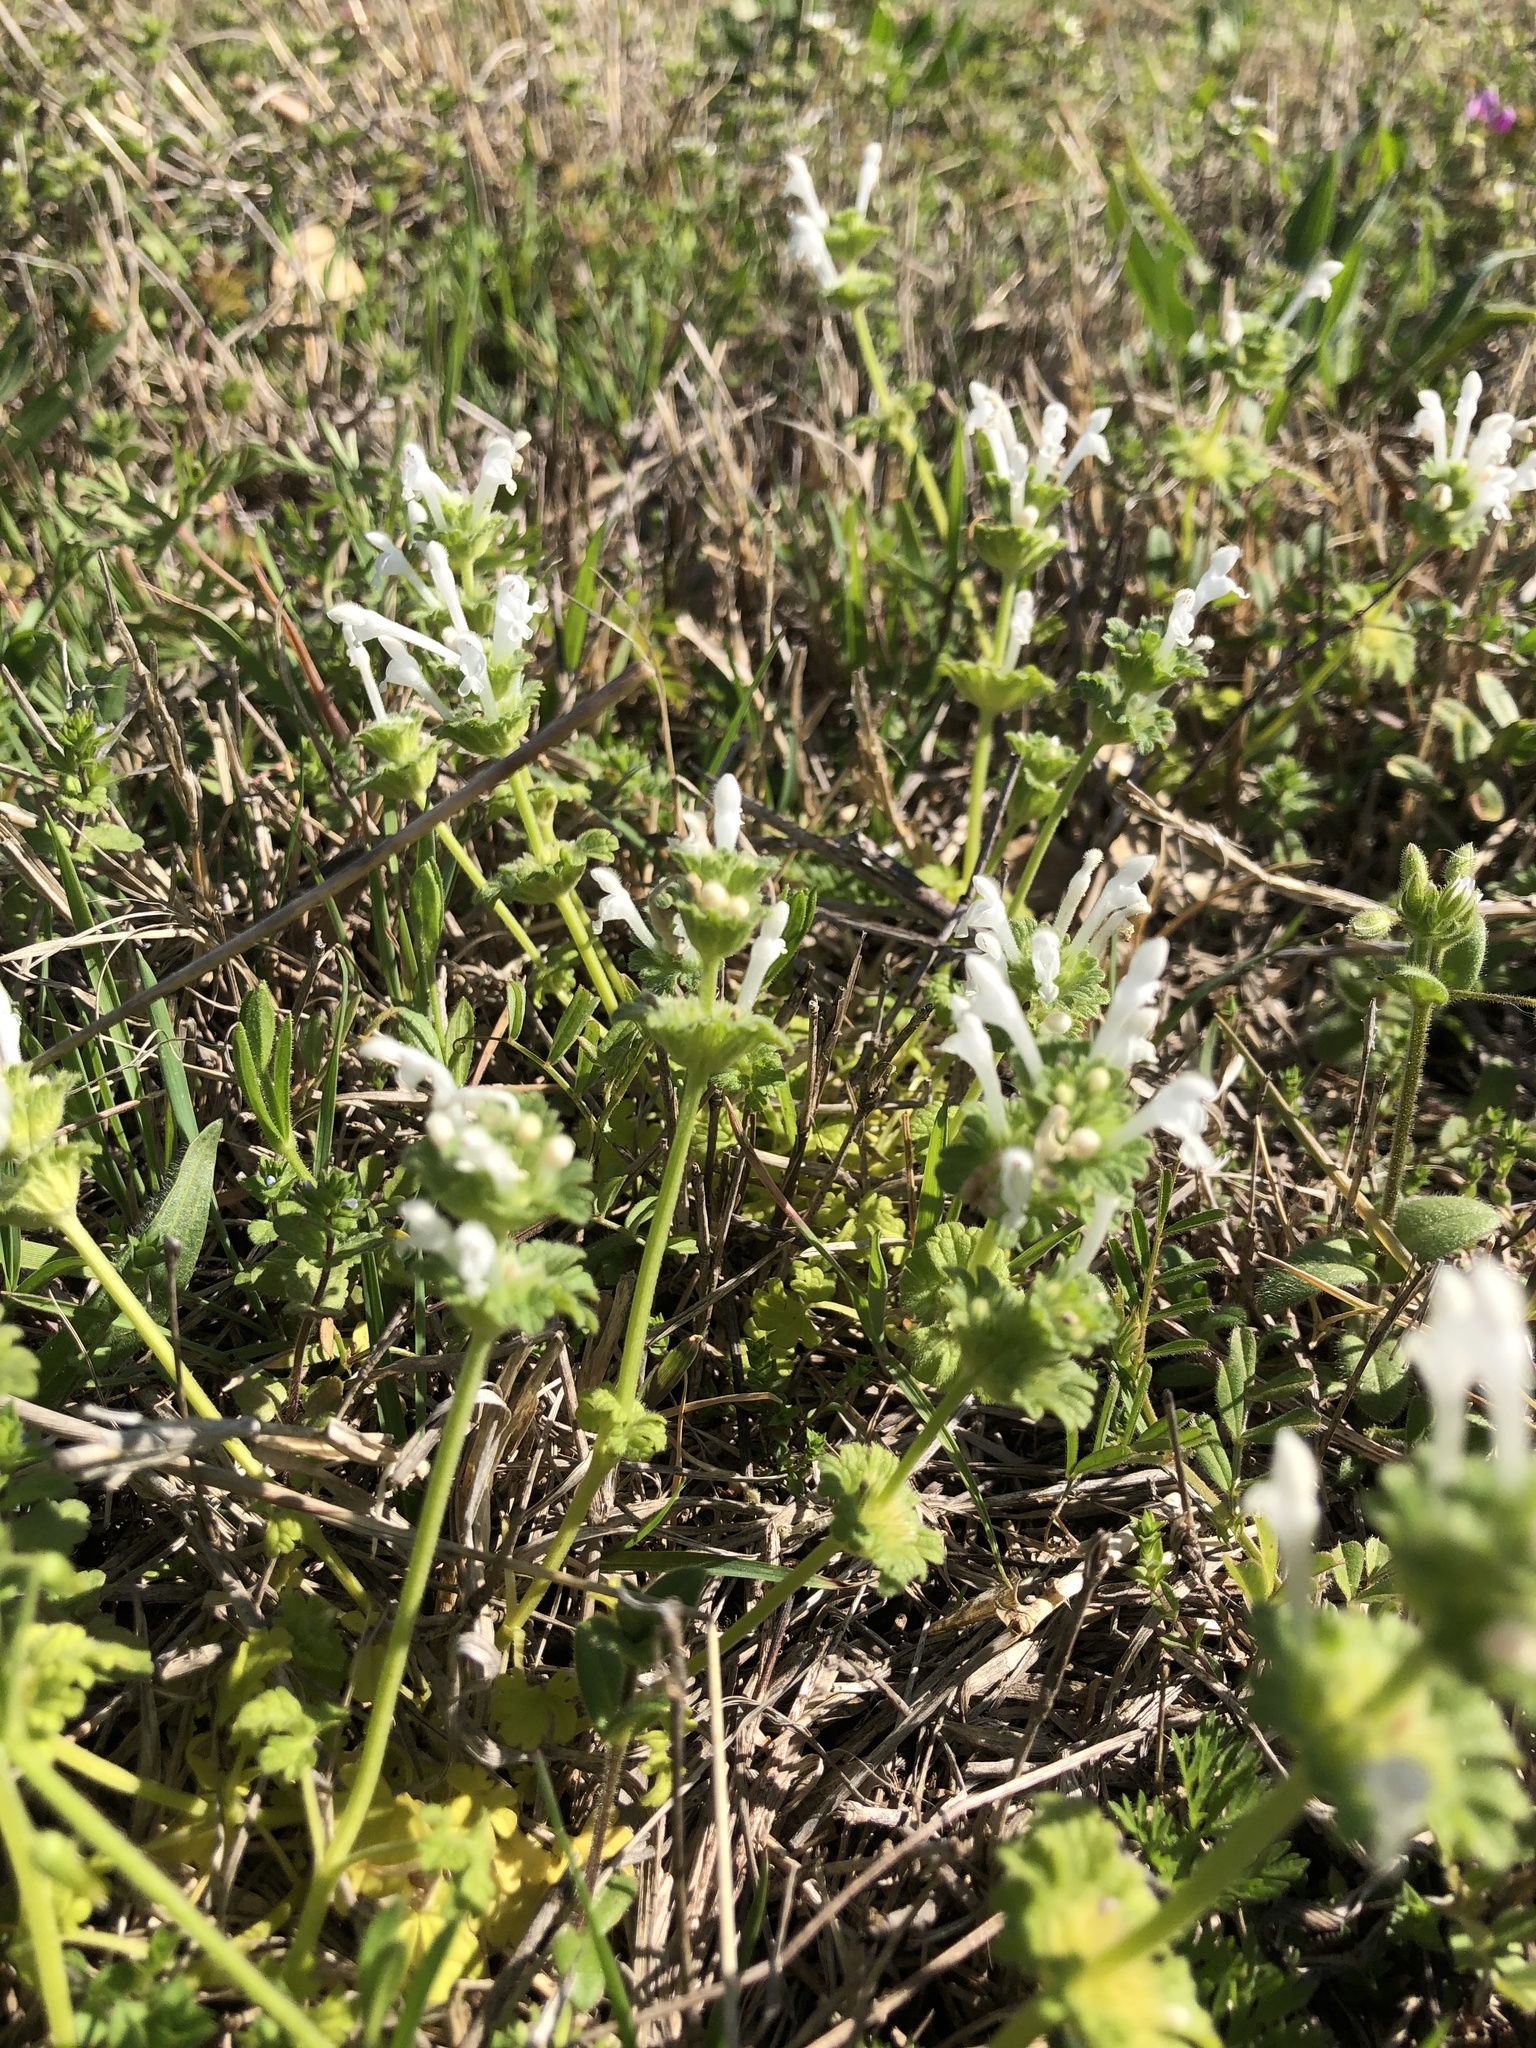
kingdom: Plantae
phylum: Tracheophyta
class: Magnoliopsida
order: Lamiales
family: Lamiaceae
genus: Lamium
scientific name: Lamium amplexicaule
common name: Henbit dead-nettle
